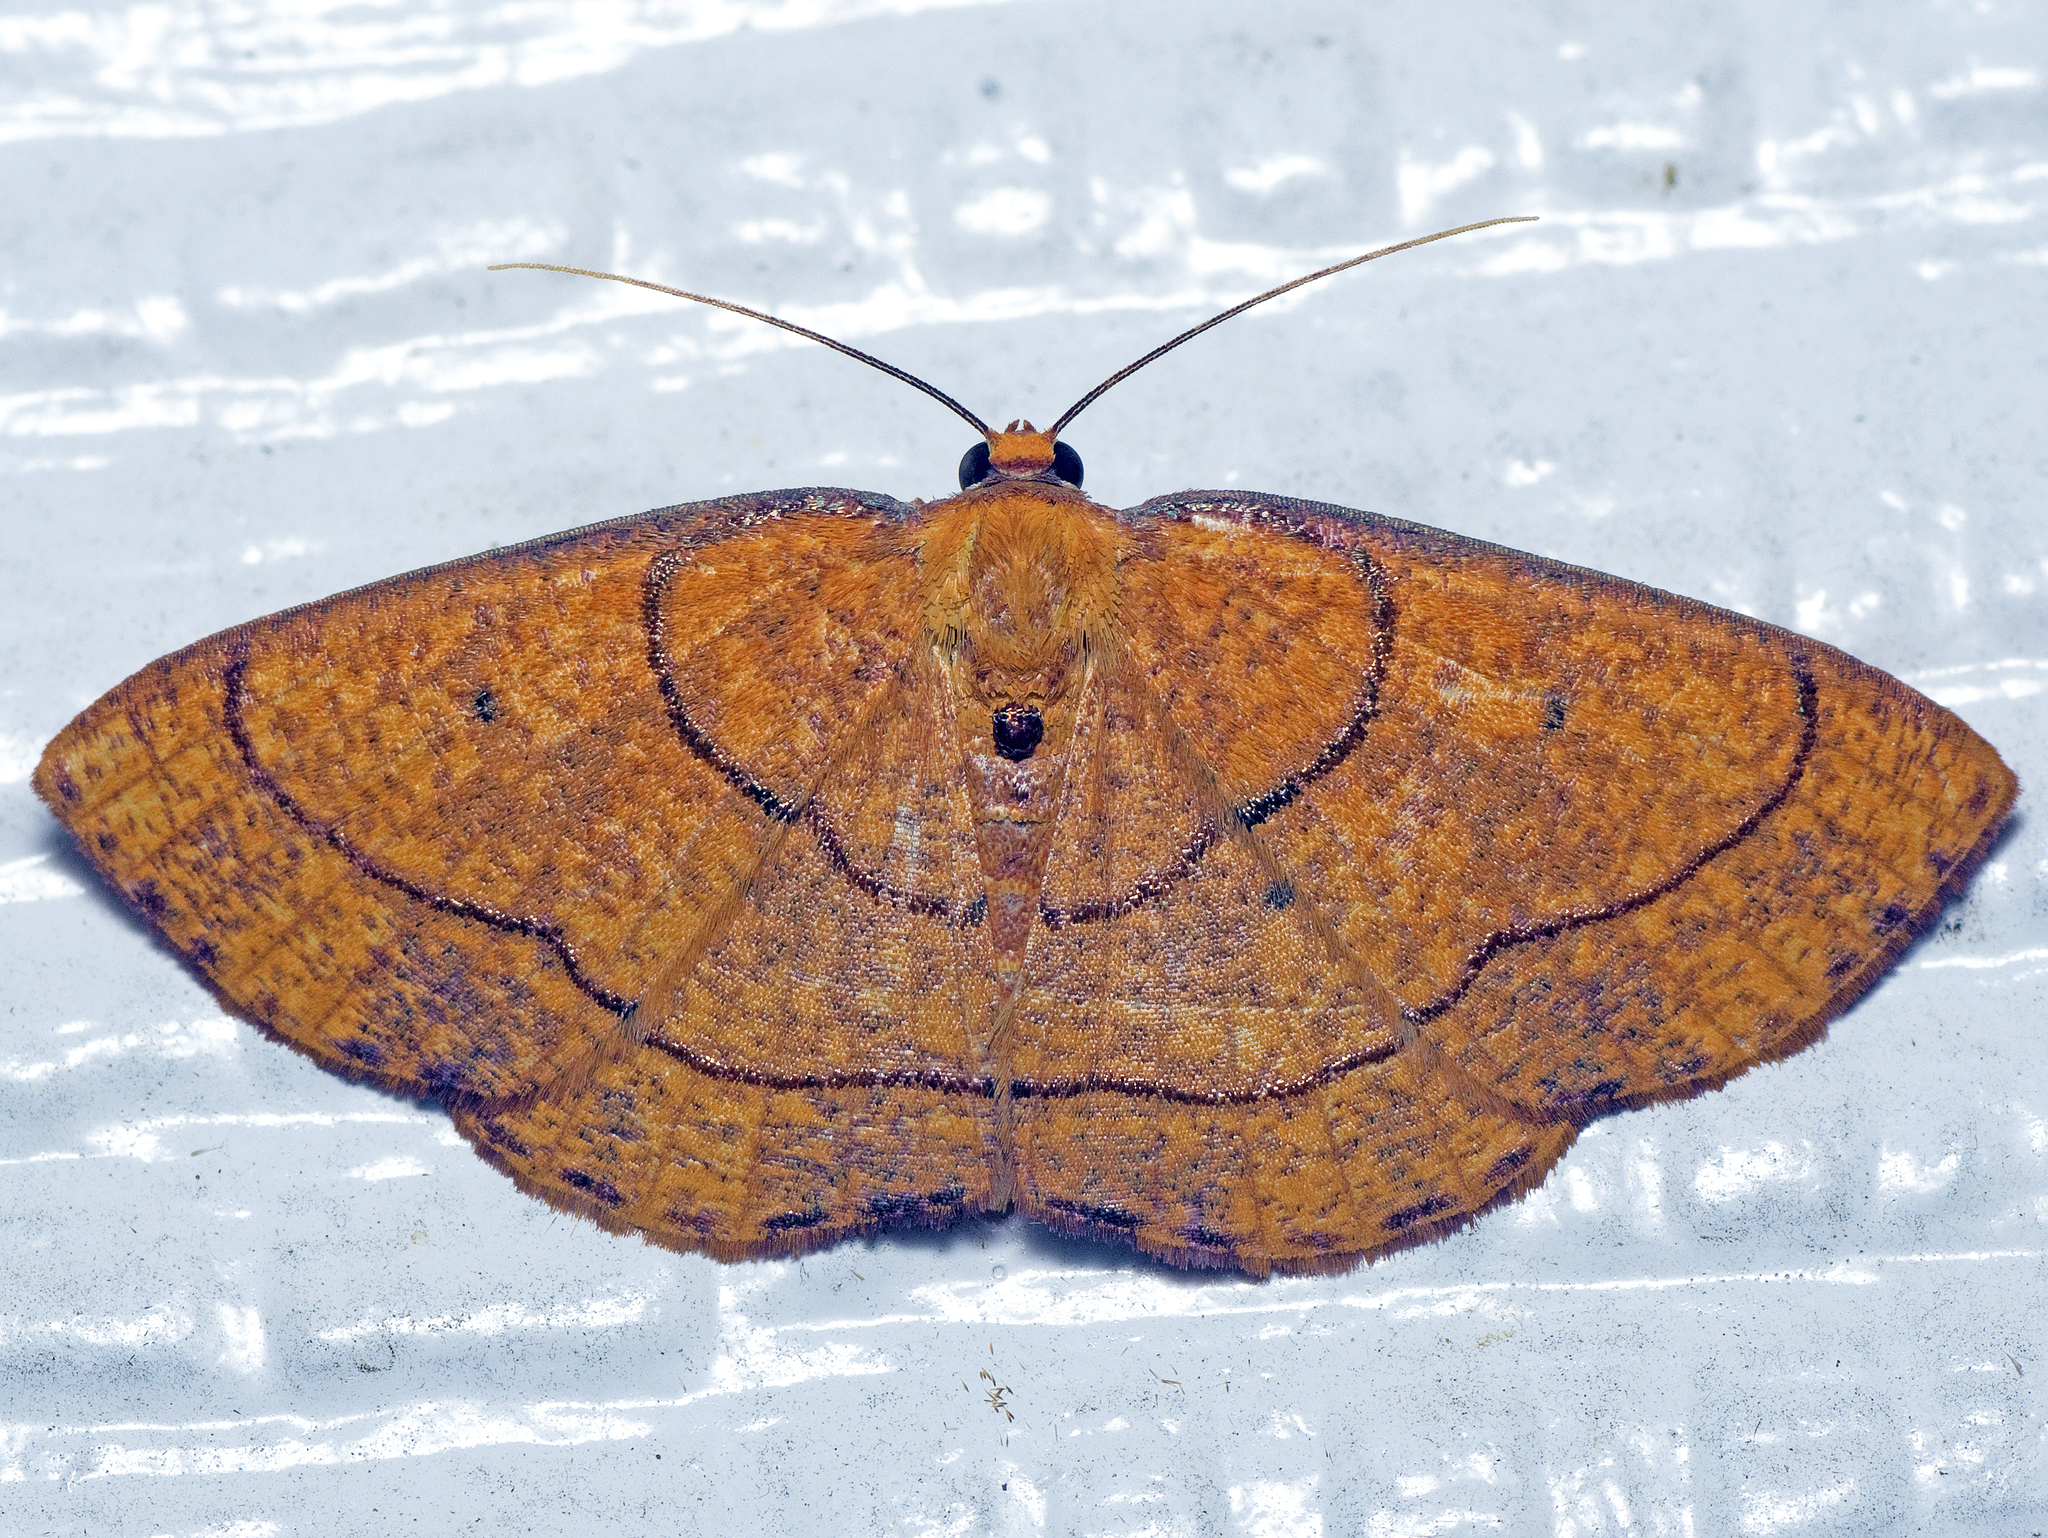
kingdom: Animalia
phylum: Arthropoda
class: Insecta
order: Lepidoptera
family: Geometridae
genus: Scardamia
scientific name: Scardamia chrysolina
